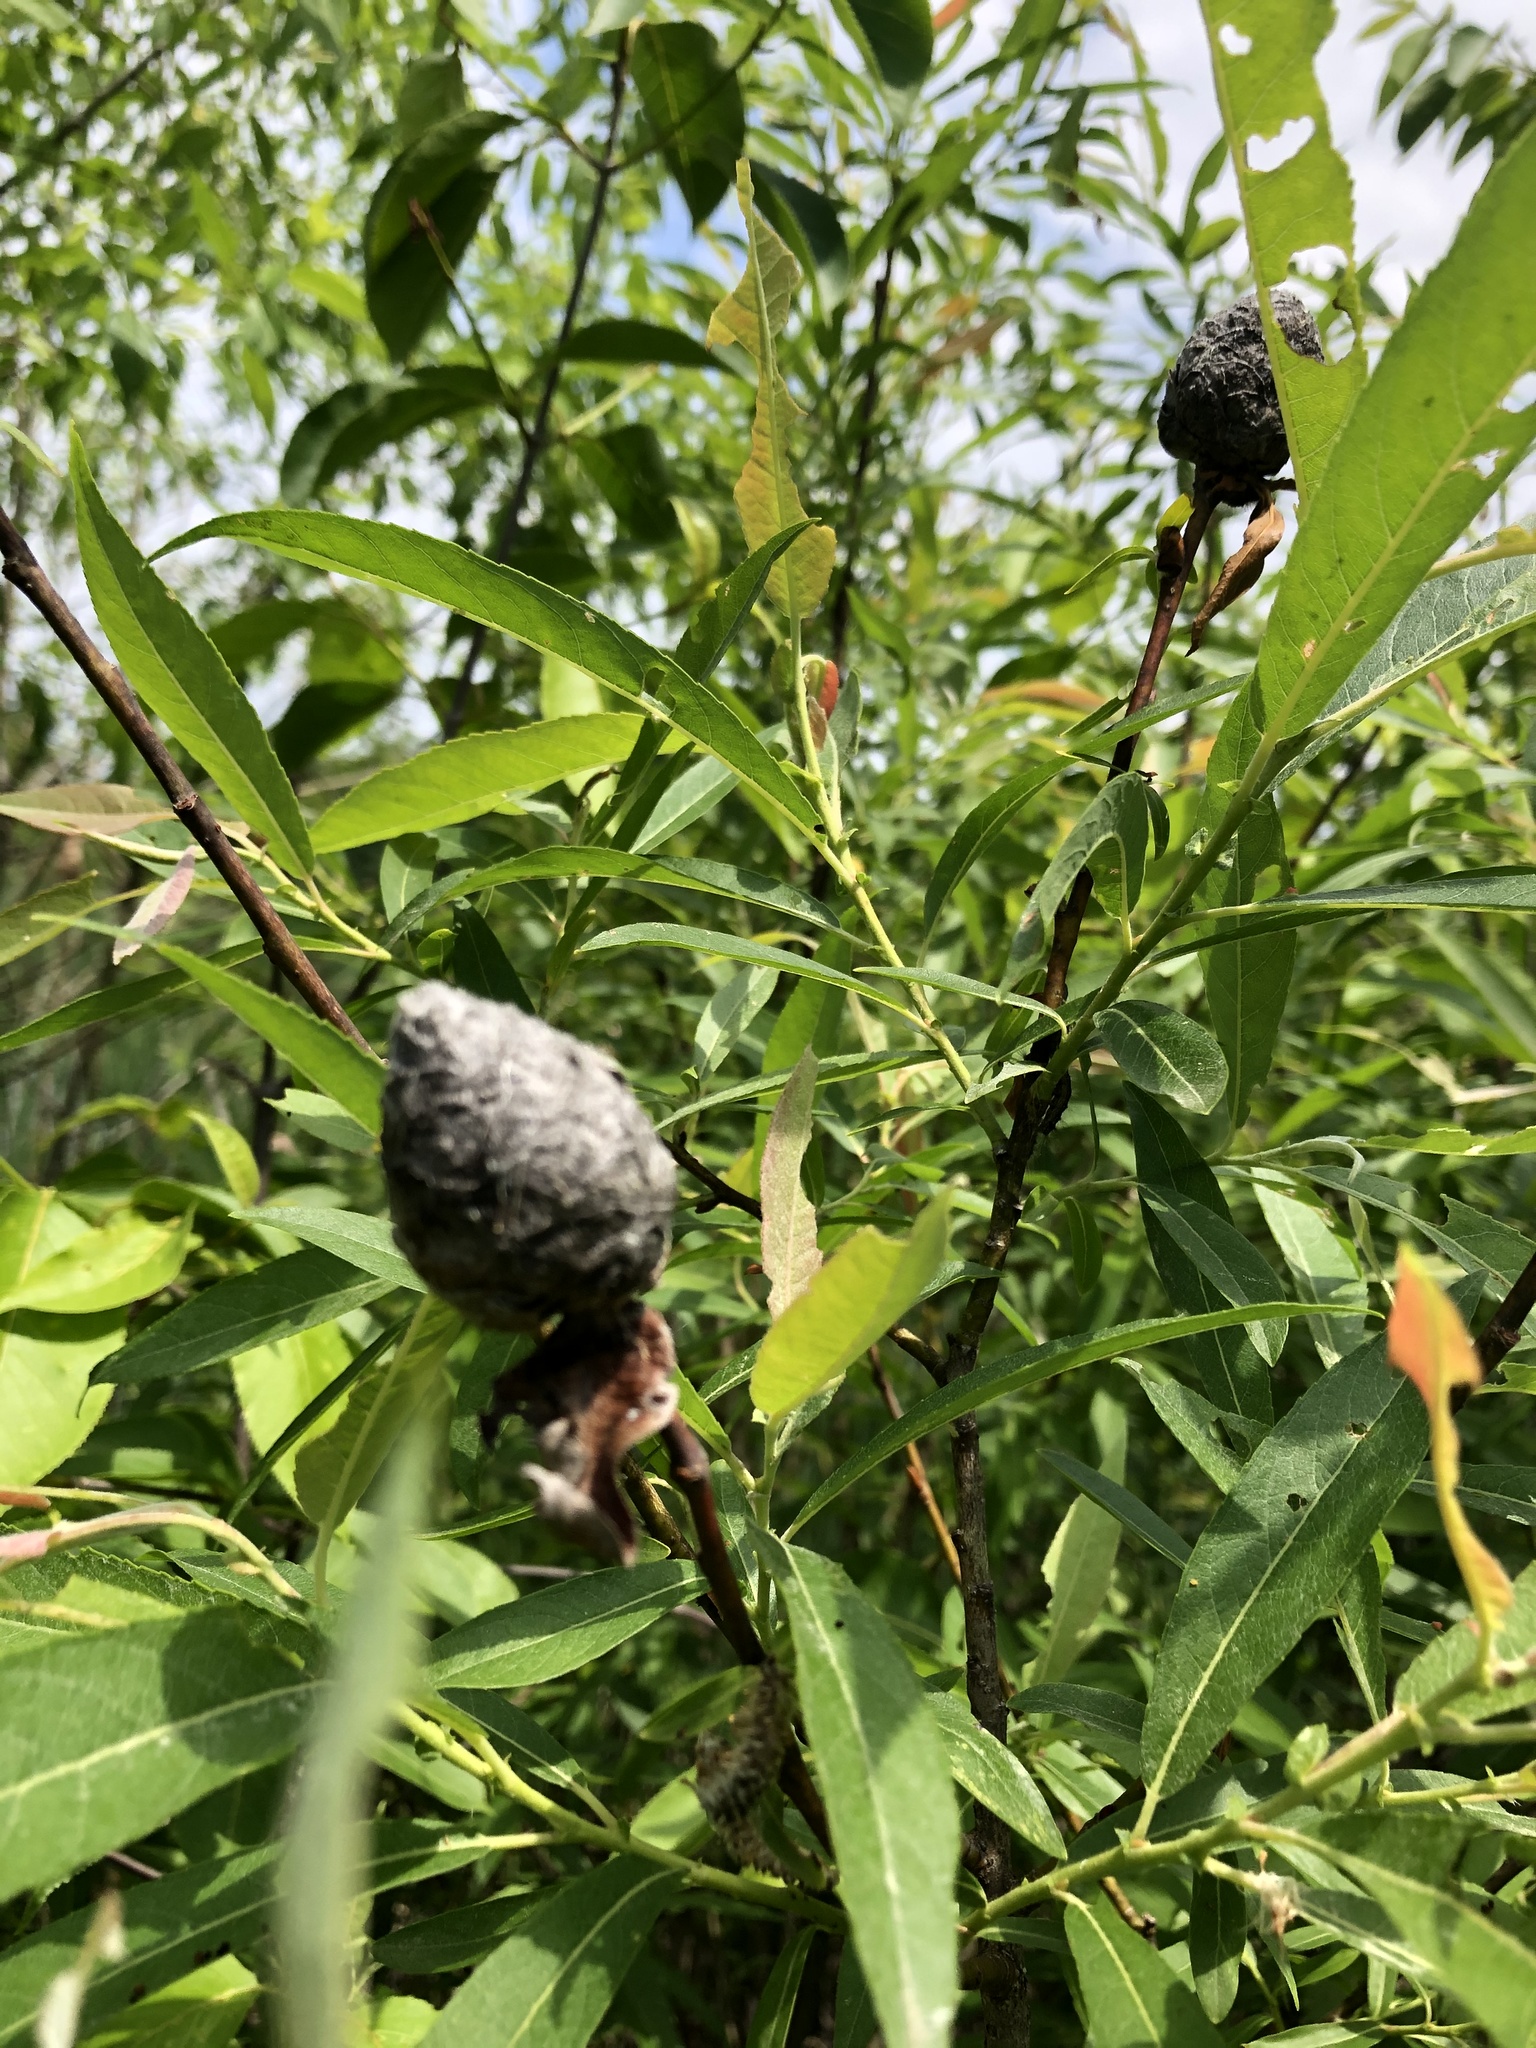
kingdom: Animalia
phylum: Arthropoda
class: Insecta
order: Diptera
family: Cecidomyiidae
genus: Rabdophaga
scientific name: Rabdophaga strobiloides
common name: Willow pinecone gall midge
